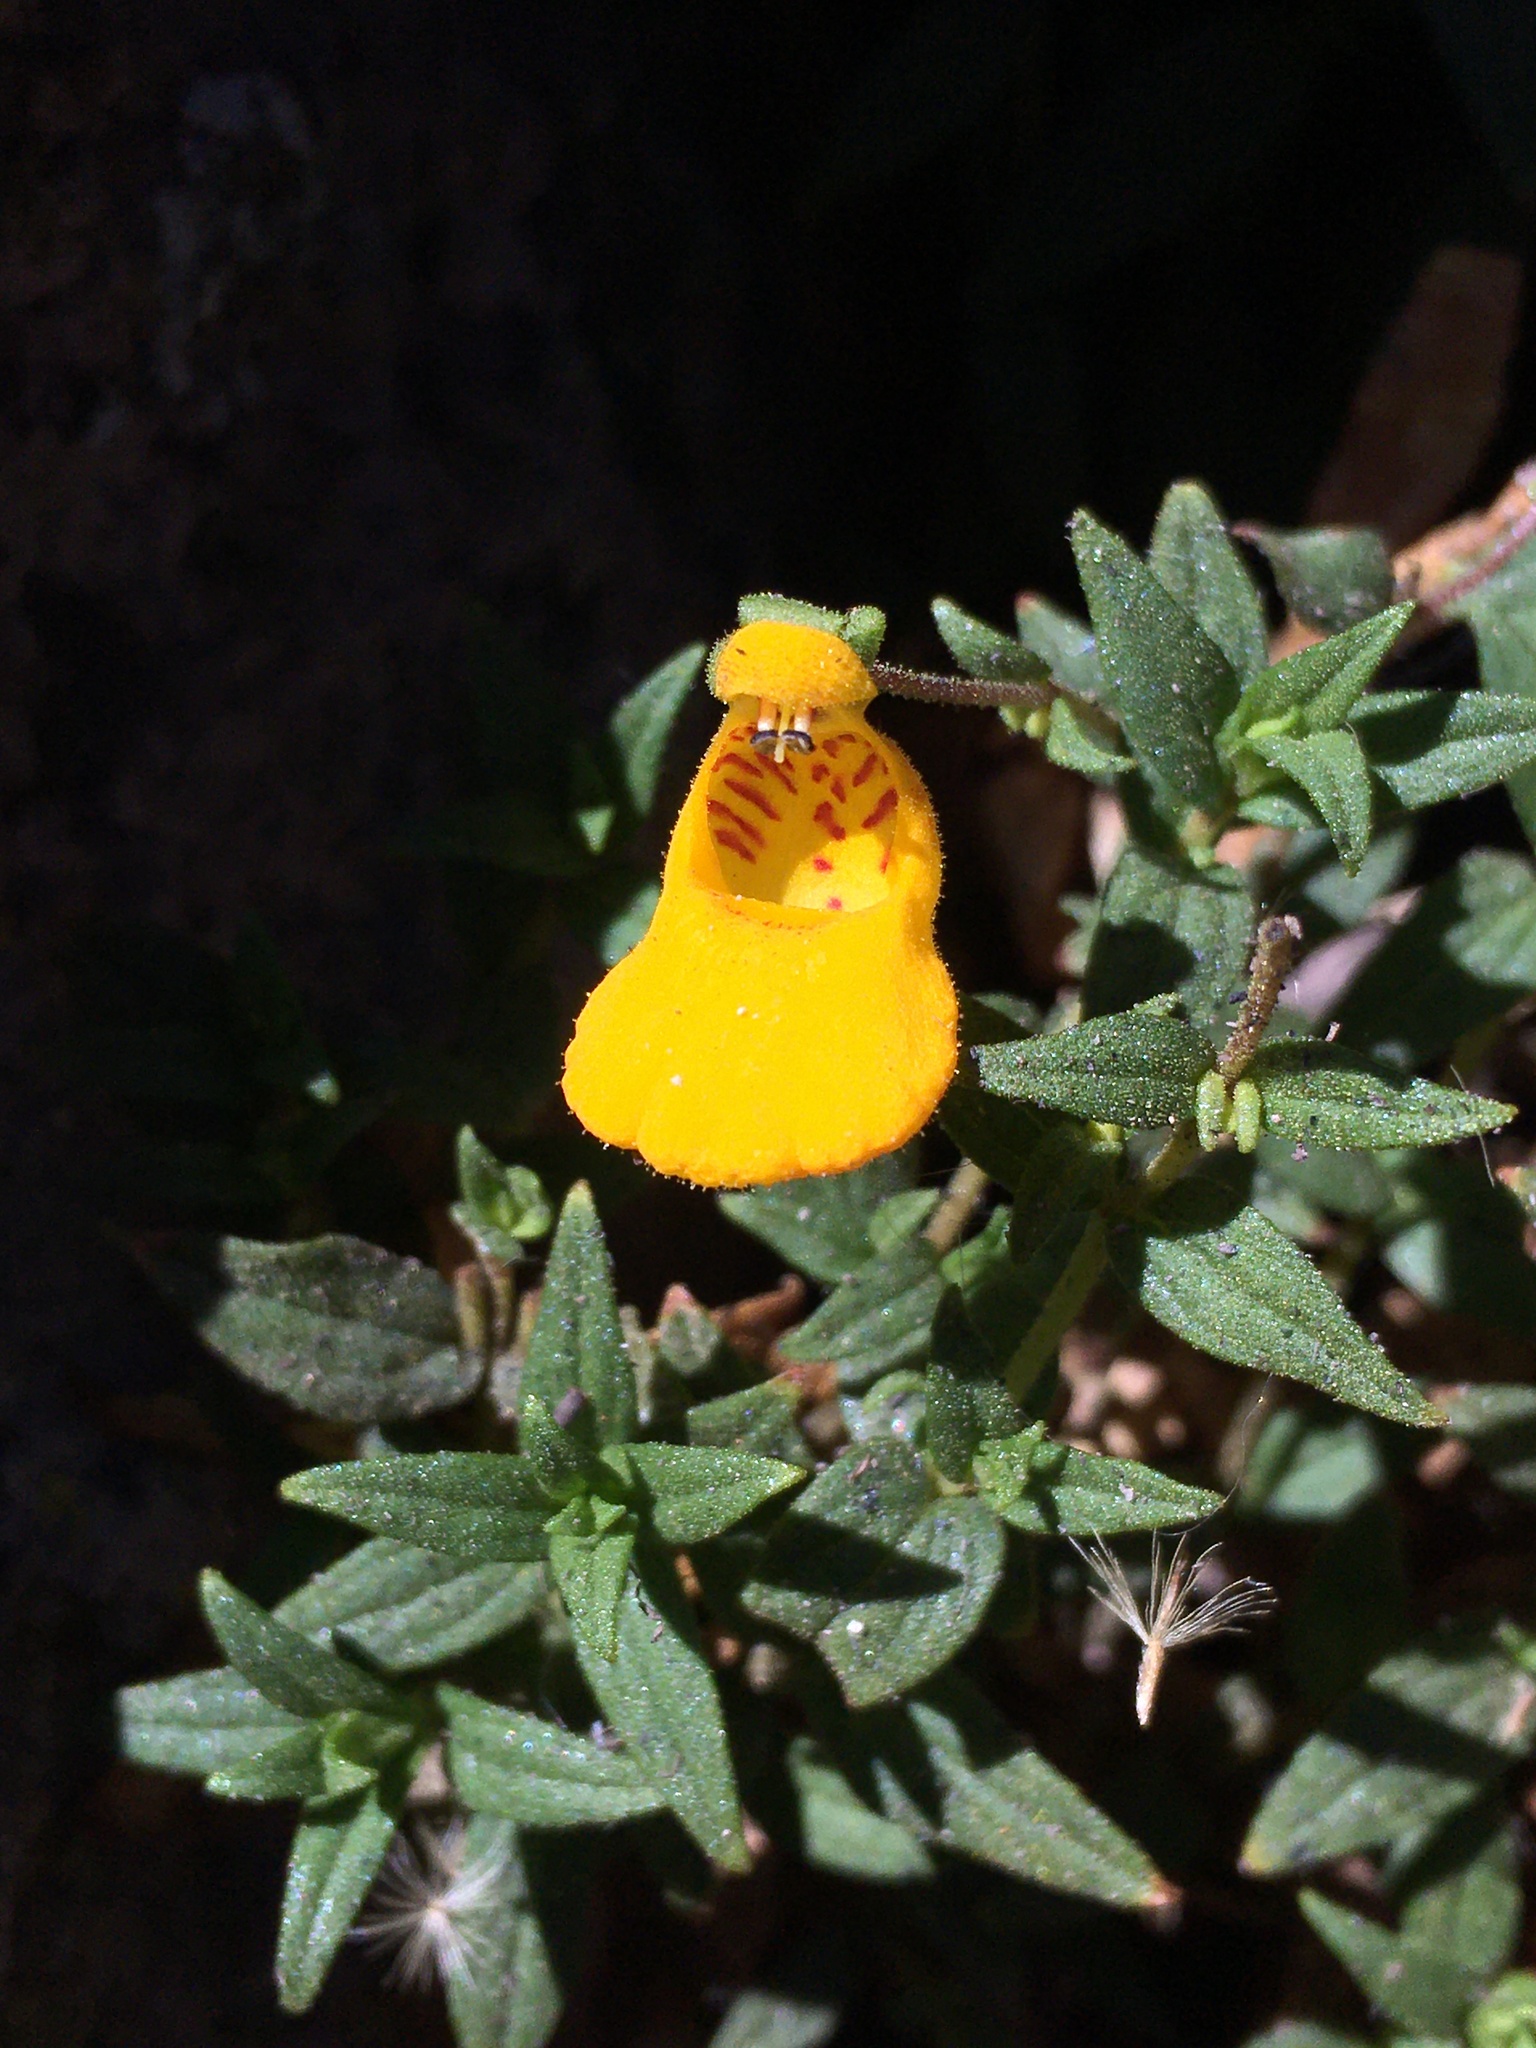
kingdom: Plantae
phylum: Tracheophyta
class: Magnoliopsida
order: Lamiales
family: Calceolariaceae
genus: Calceolaria
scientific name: Calceolaria stellariifolia
